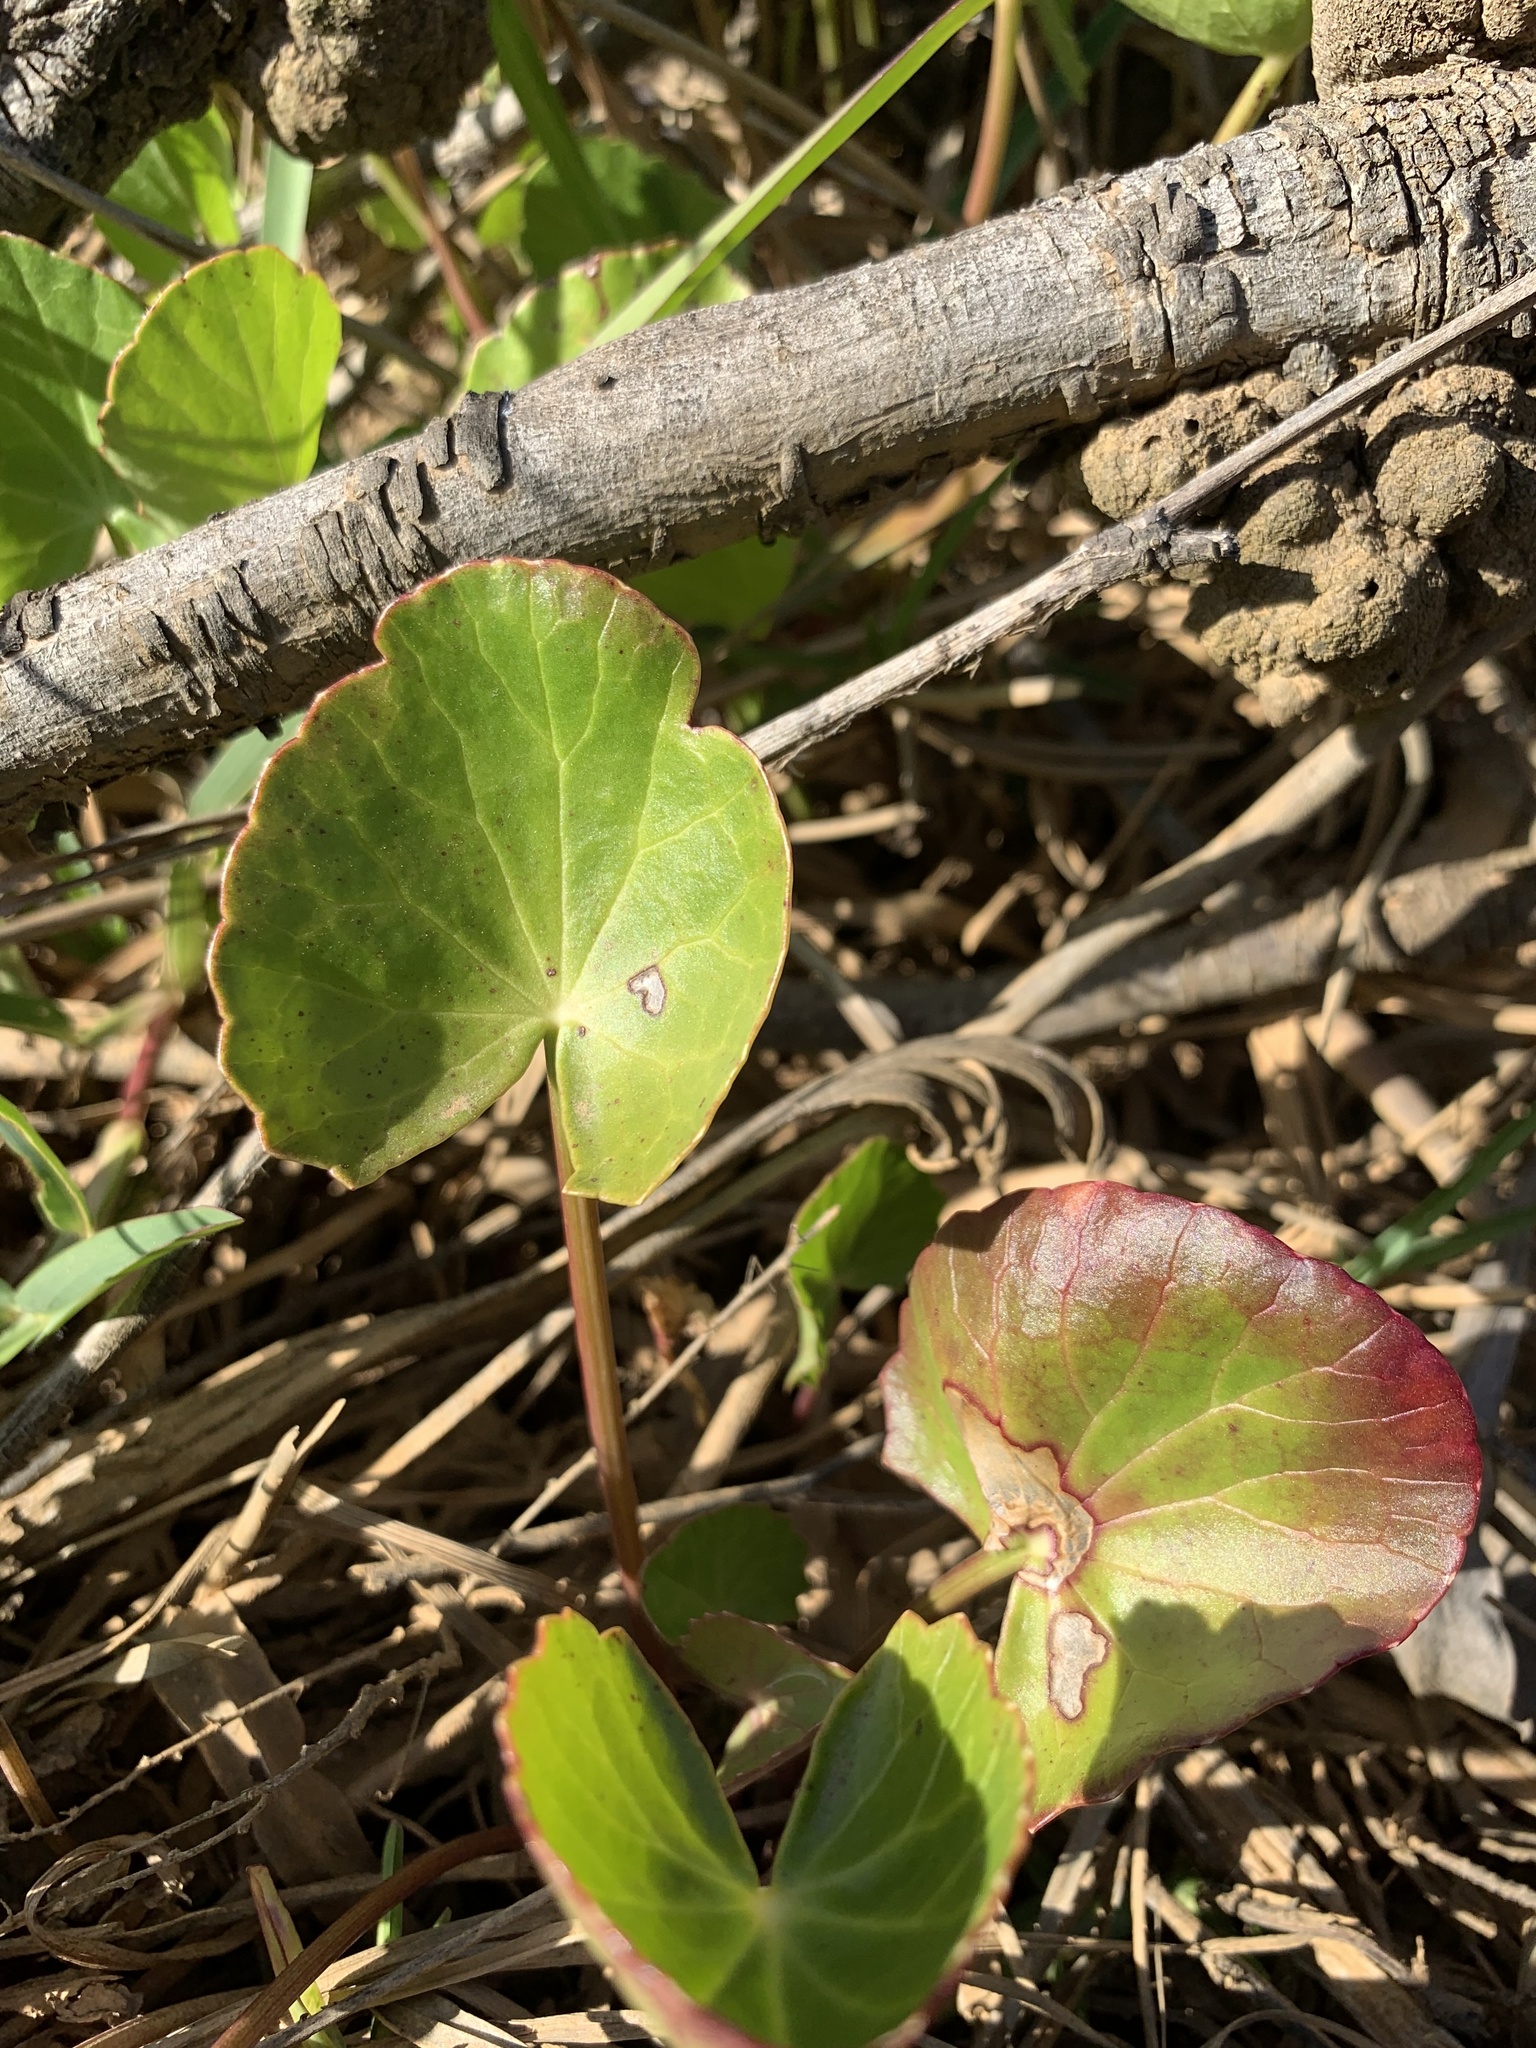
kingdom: Plantae
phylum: Tracheophyta
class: Magnoliopsida
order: Apiales
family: Apiaceae
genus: Centella
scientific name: Centella asiatica
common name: Spadeleaf
